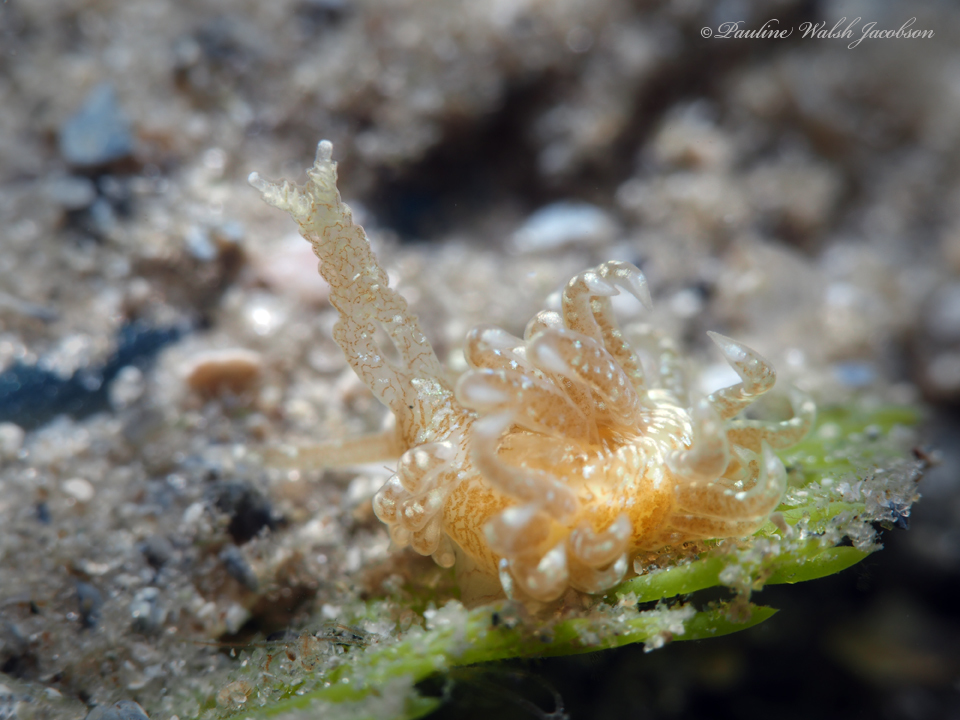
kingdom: Animalia
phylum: Mollusca
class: Gastropoda
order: Nudibranchia
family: Aeolidiidae
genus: Spurilla
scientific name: Spurilla sargassicola
